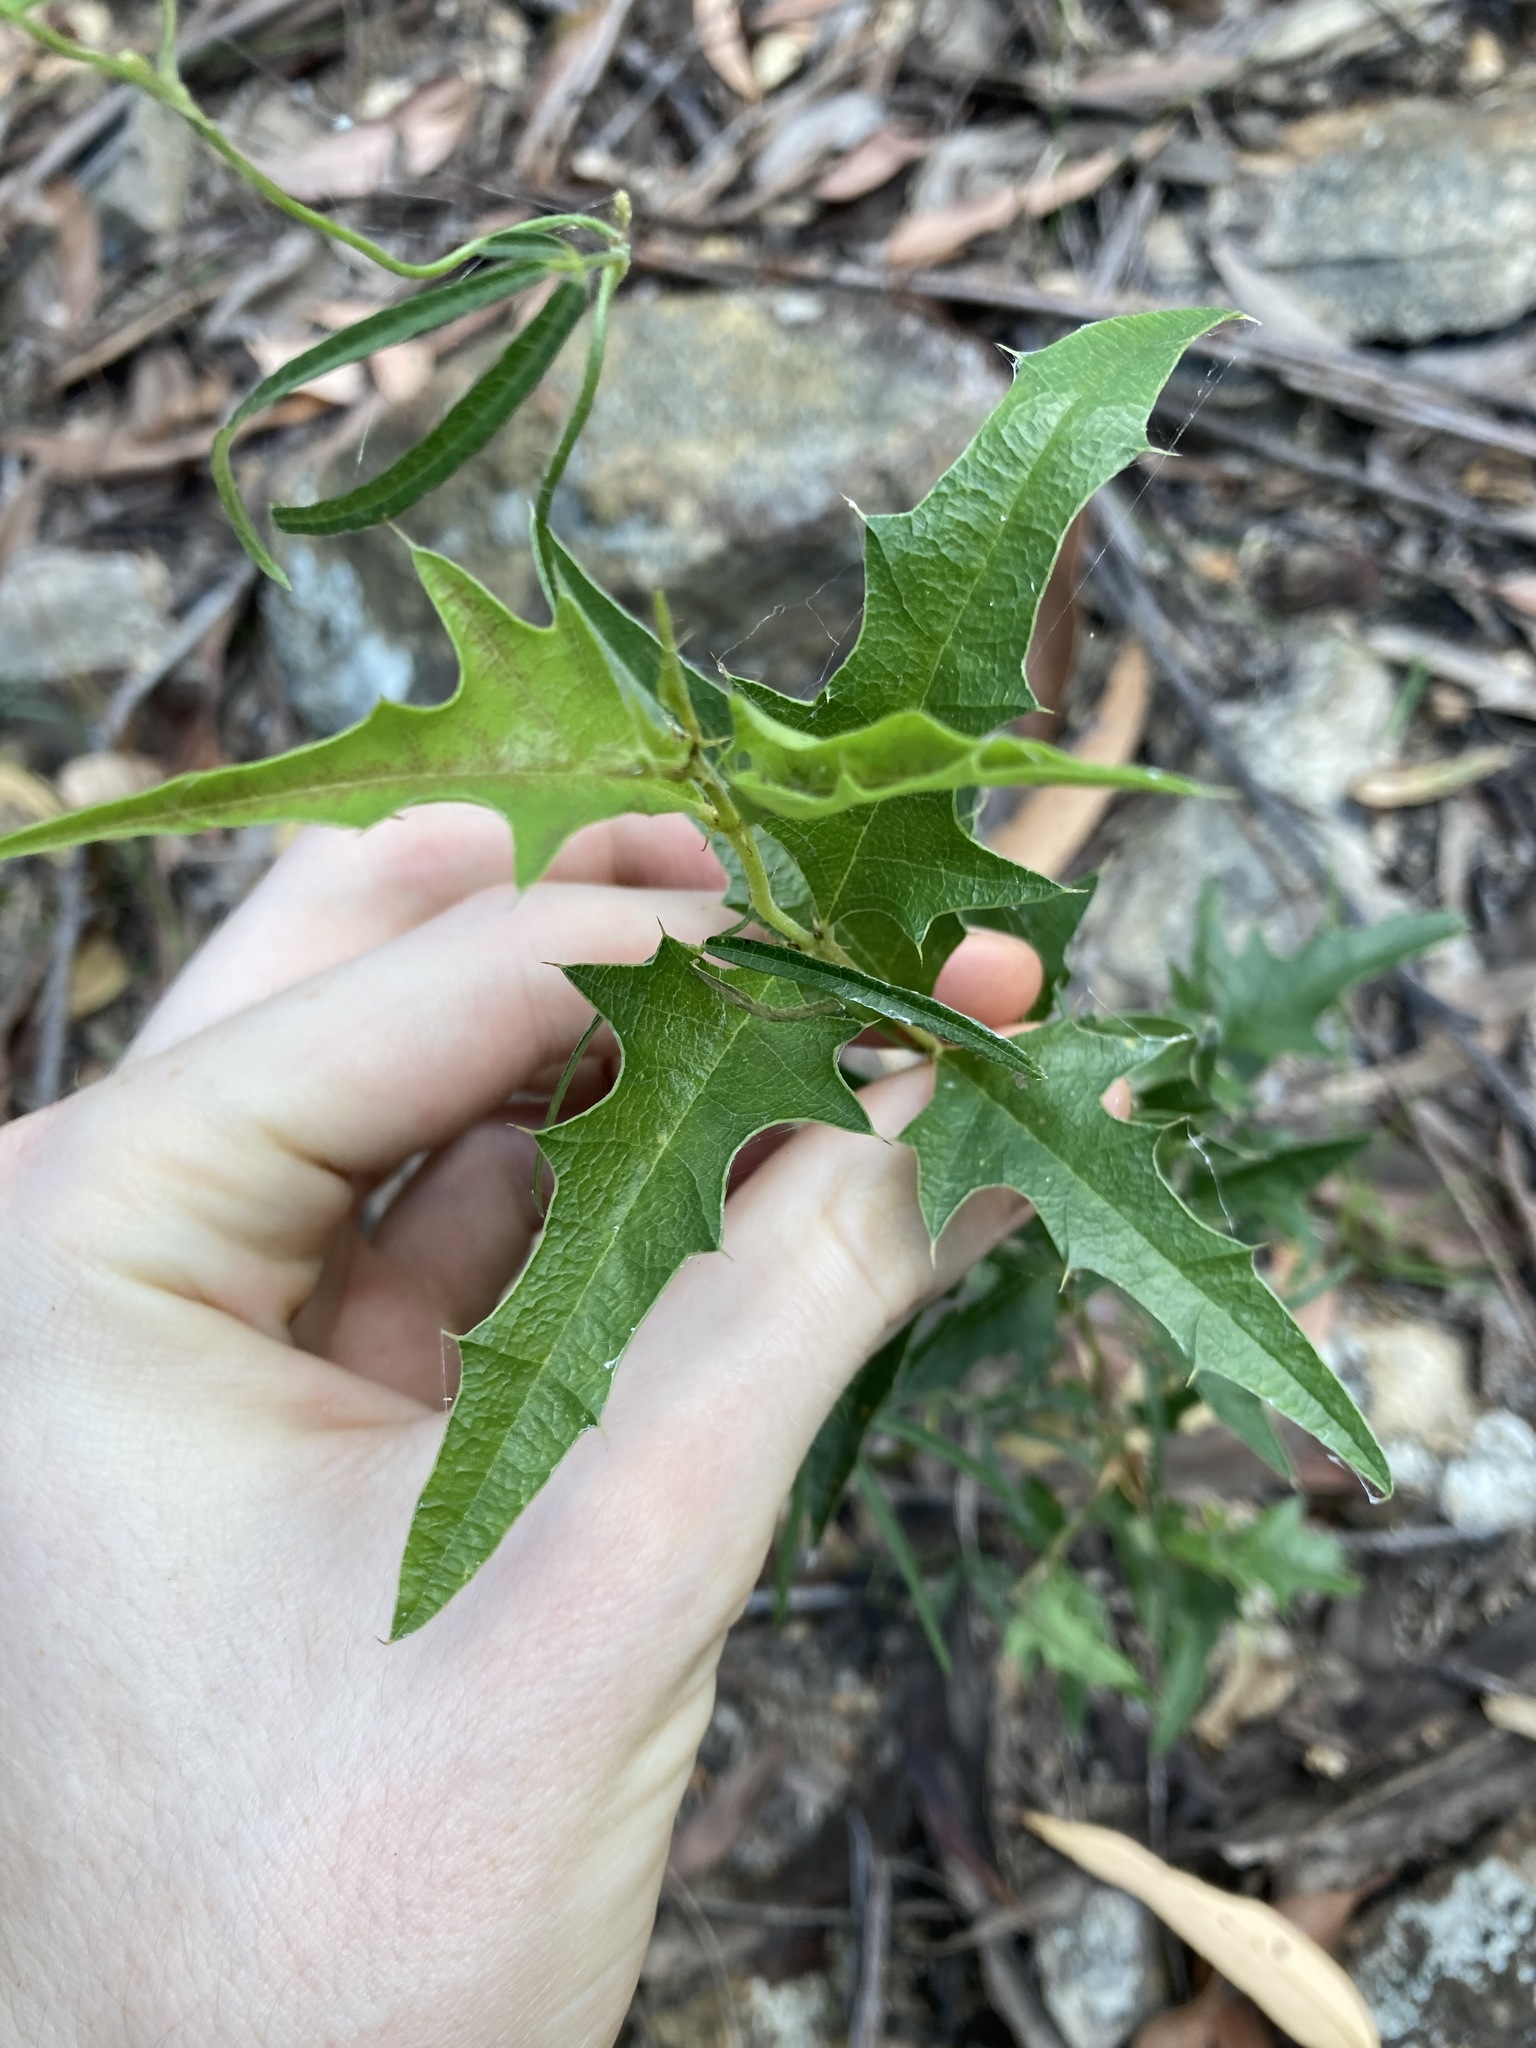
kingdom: Plantae
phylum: Tracheophyta
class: Magnoliopsida
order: Fabales
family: Fabaceae
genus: Podolobium
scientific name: Podolobium ilicifolium
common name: Native holly
